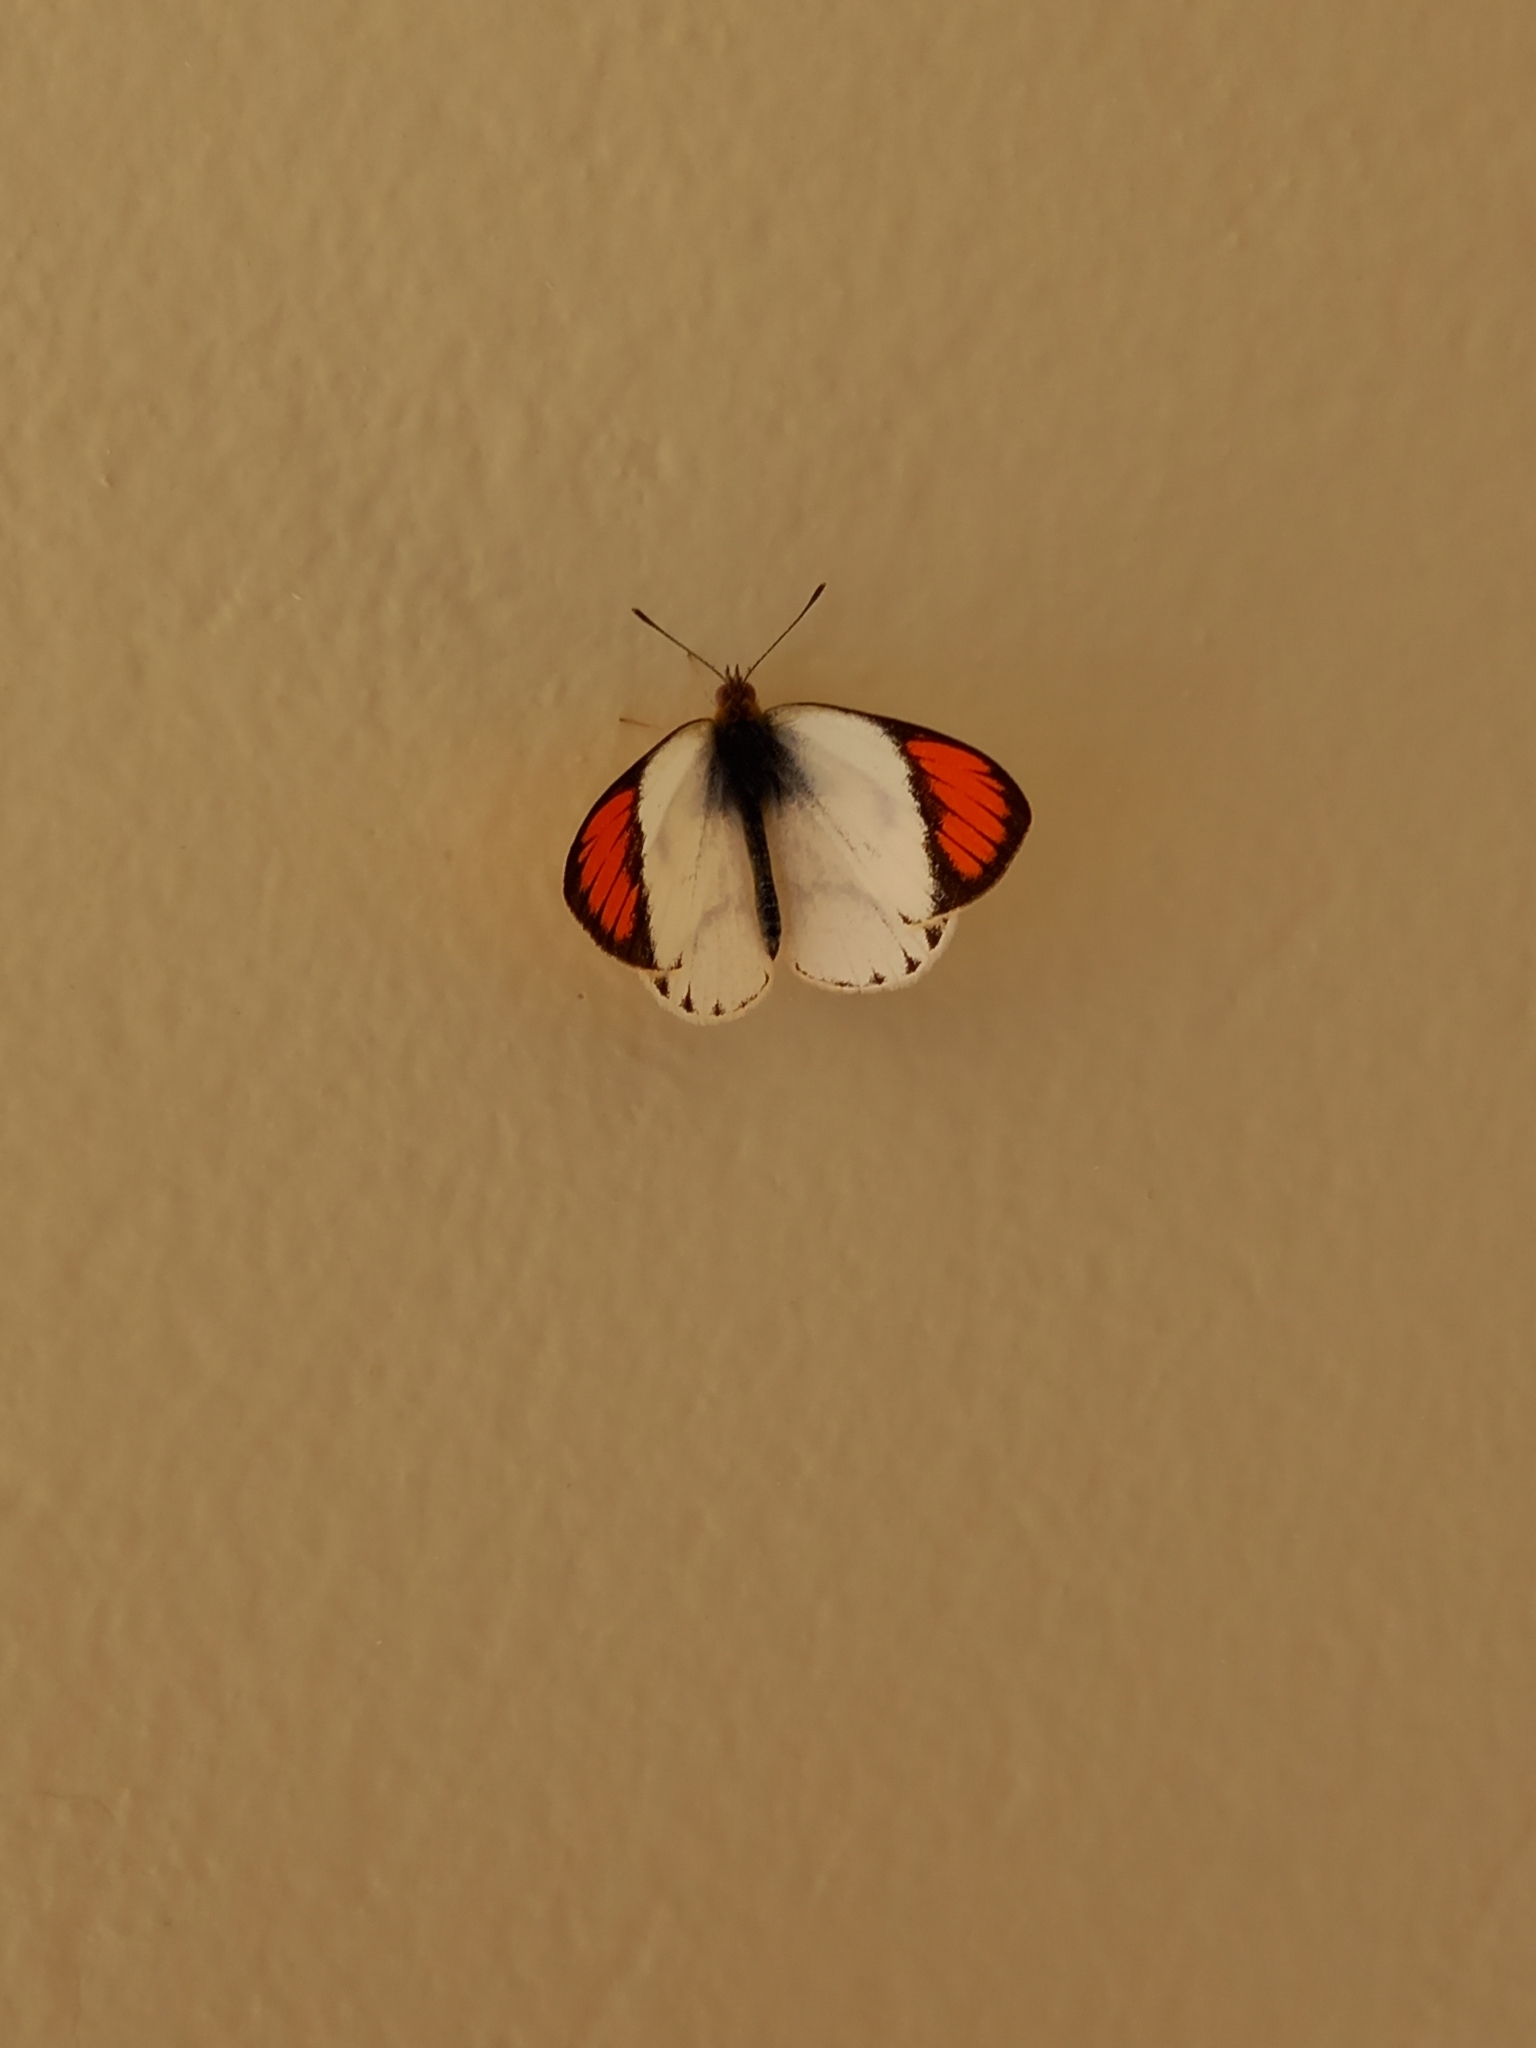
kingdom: Animalia
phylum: Arthropoda
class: Insecta
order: Lepidoptera
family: Pieridae
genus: Colotis
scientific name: Colotis pallene
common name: Bushveld orange tip
